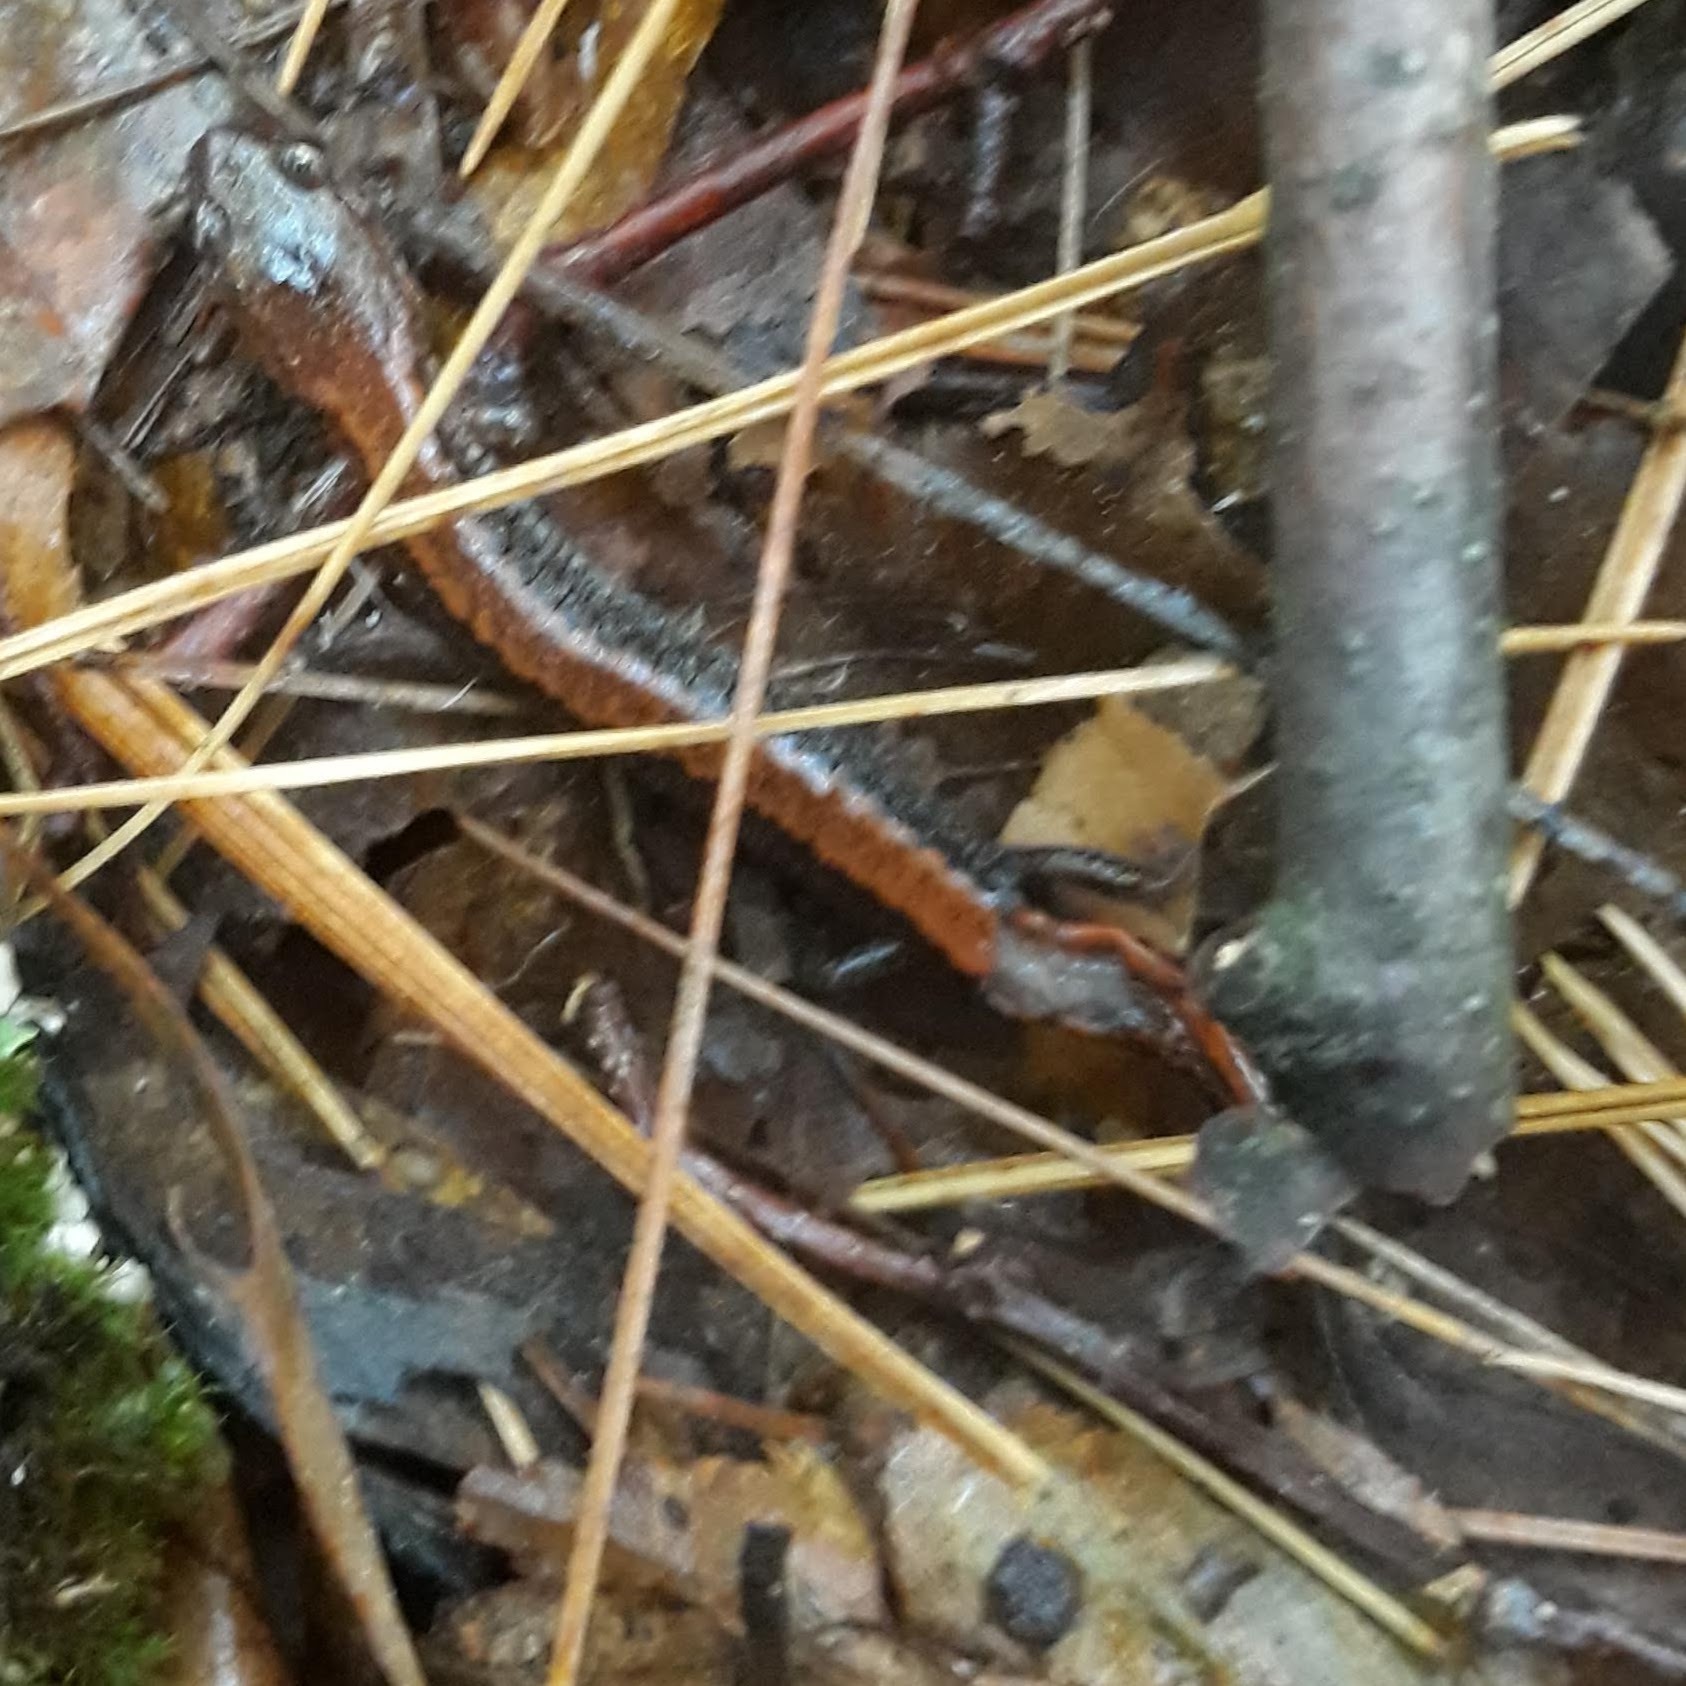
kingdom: Animalia
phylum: Chordata
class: Amphibia
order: Caudata
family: Plethodontidae
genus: Plethodon
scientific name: Plethodon cinereus
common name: Redback salamander
